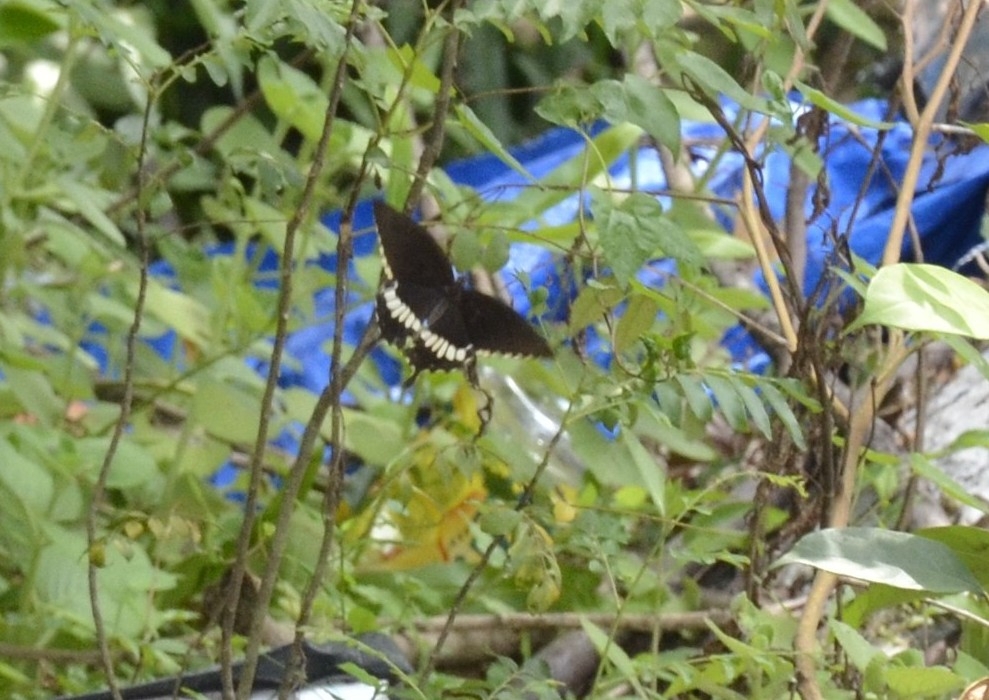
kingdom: Animalia
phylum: Arthropoda
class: Insecta
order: Lepidoptera
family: Papilionidae
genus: Papilio
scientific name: Papilio polytes
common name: Common mormon
